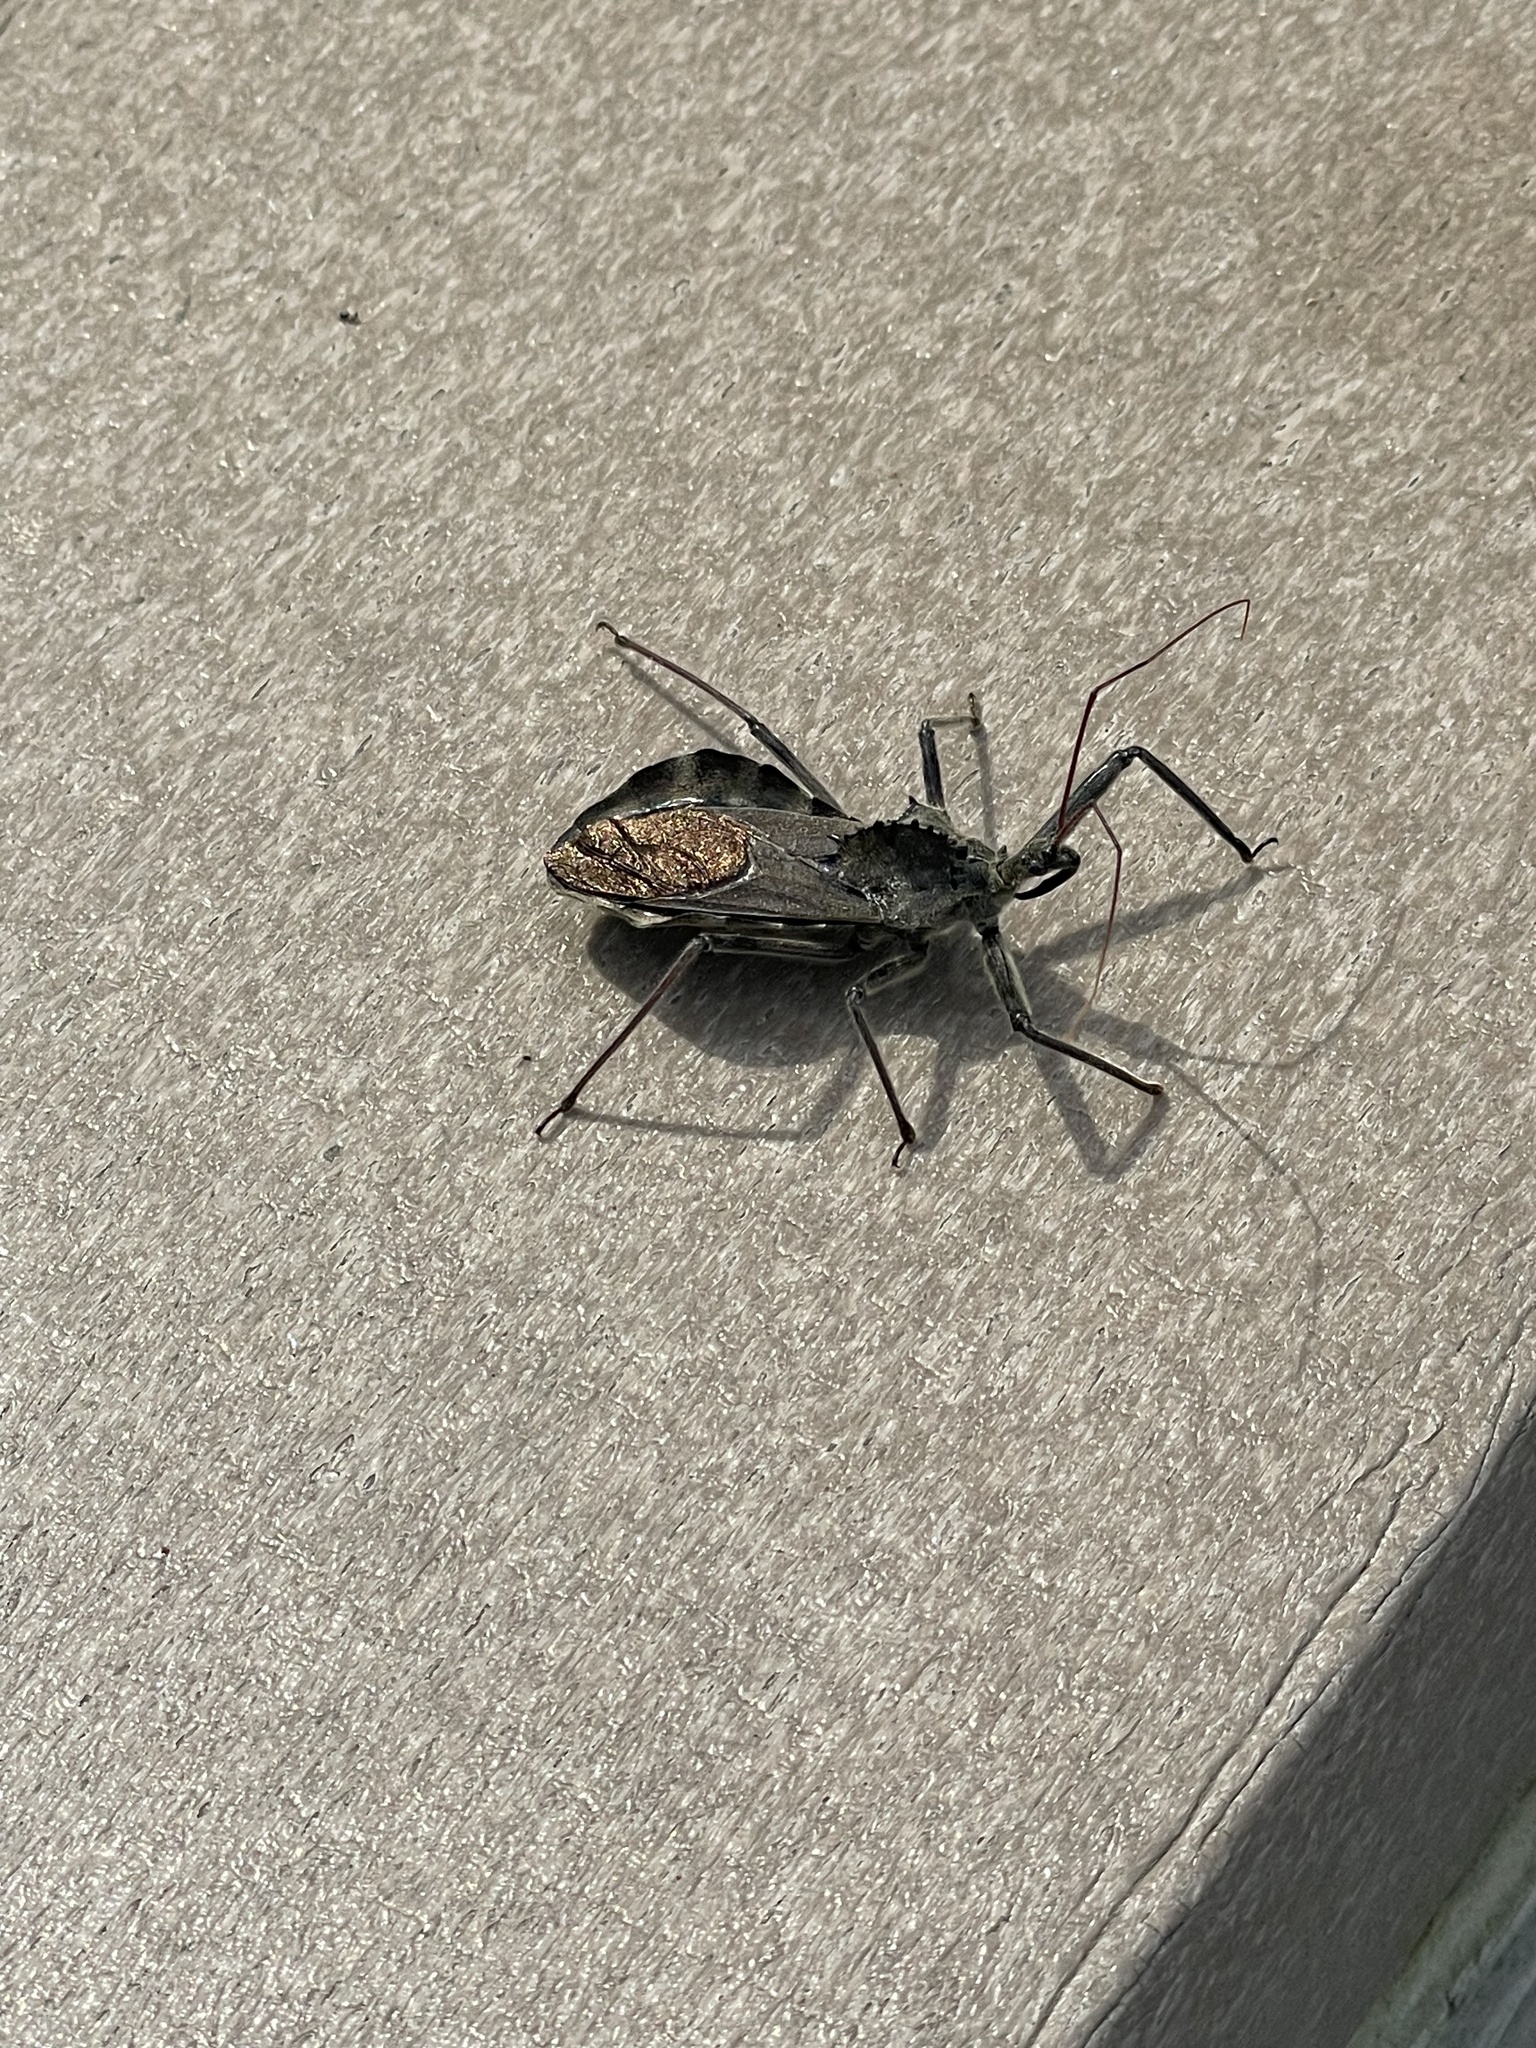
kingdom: Animalia
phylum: Arthropoda
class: Insecta
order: Hemiptera
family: Reduviidae
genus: Arilus
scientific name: Arilus cristatus
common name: North american wheel bug
